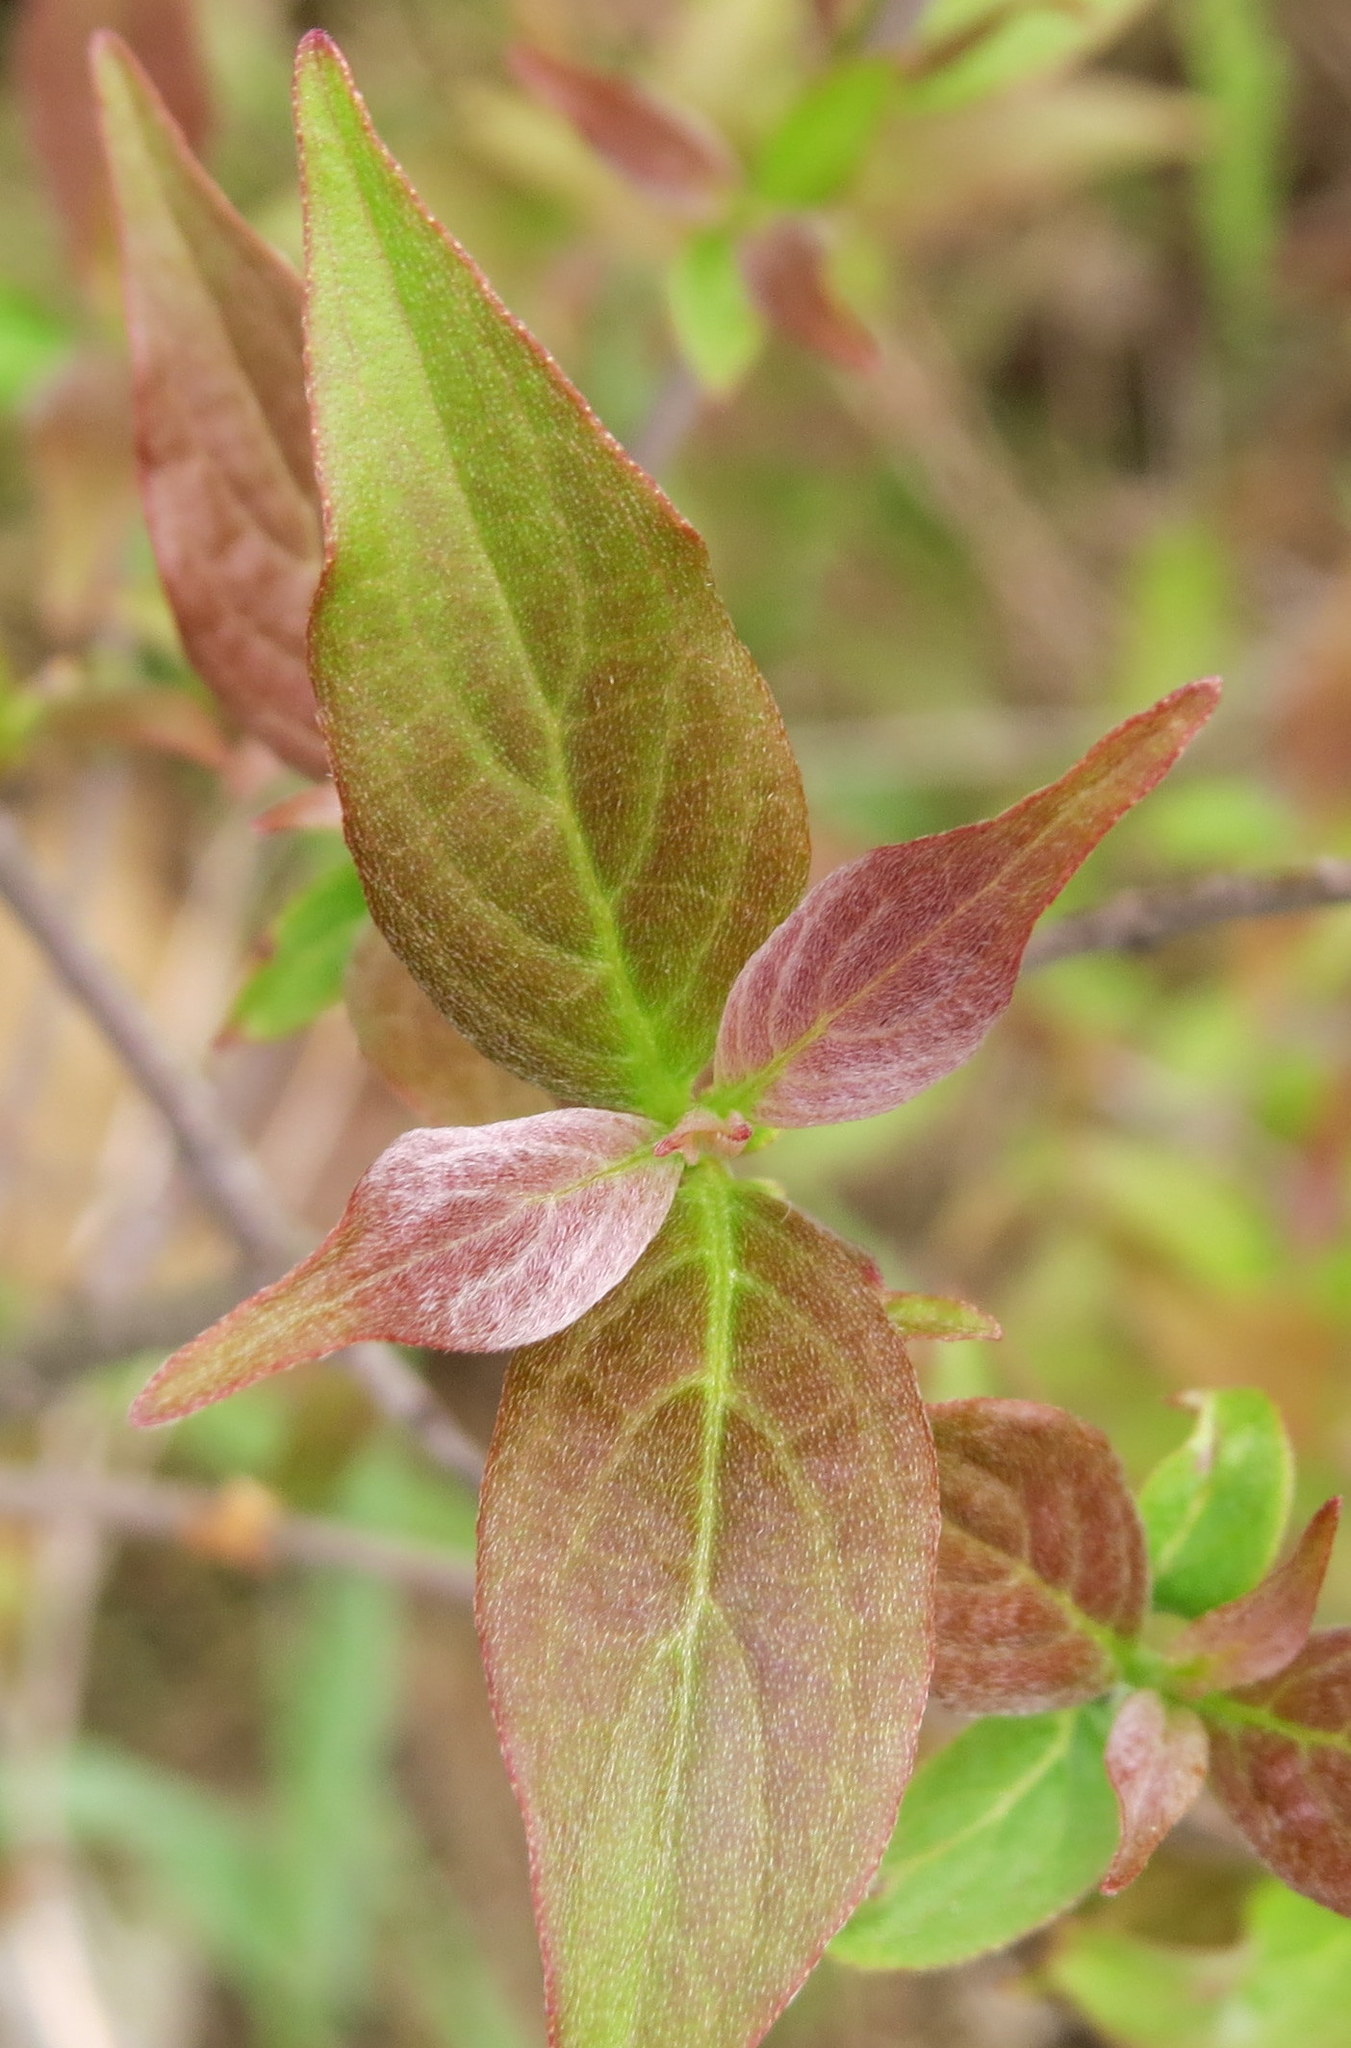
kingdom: Plantae
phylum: Tracheophyta
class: Magnoliopsida
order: Cornales
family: Cornaceae
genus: Cornus
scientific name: Cornus racemosa
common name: Panicled dogwood
